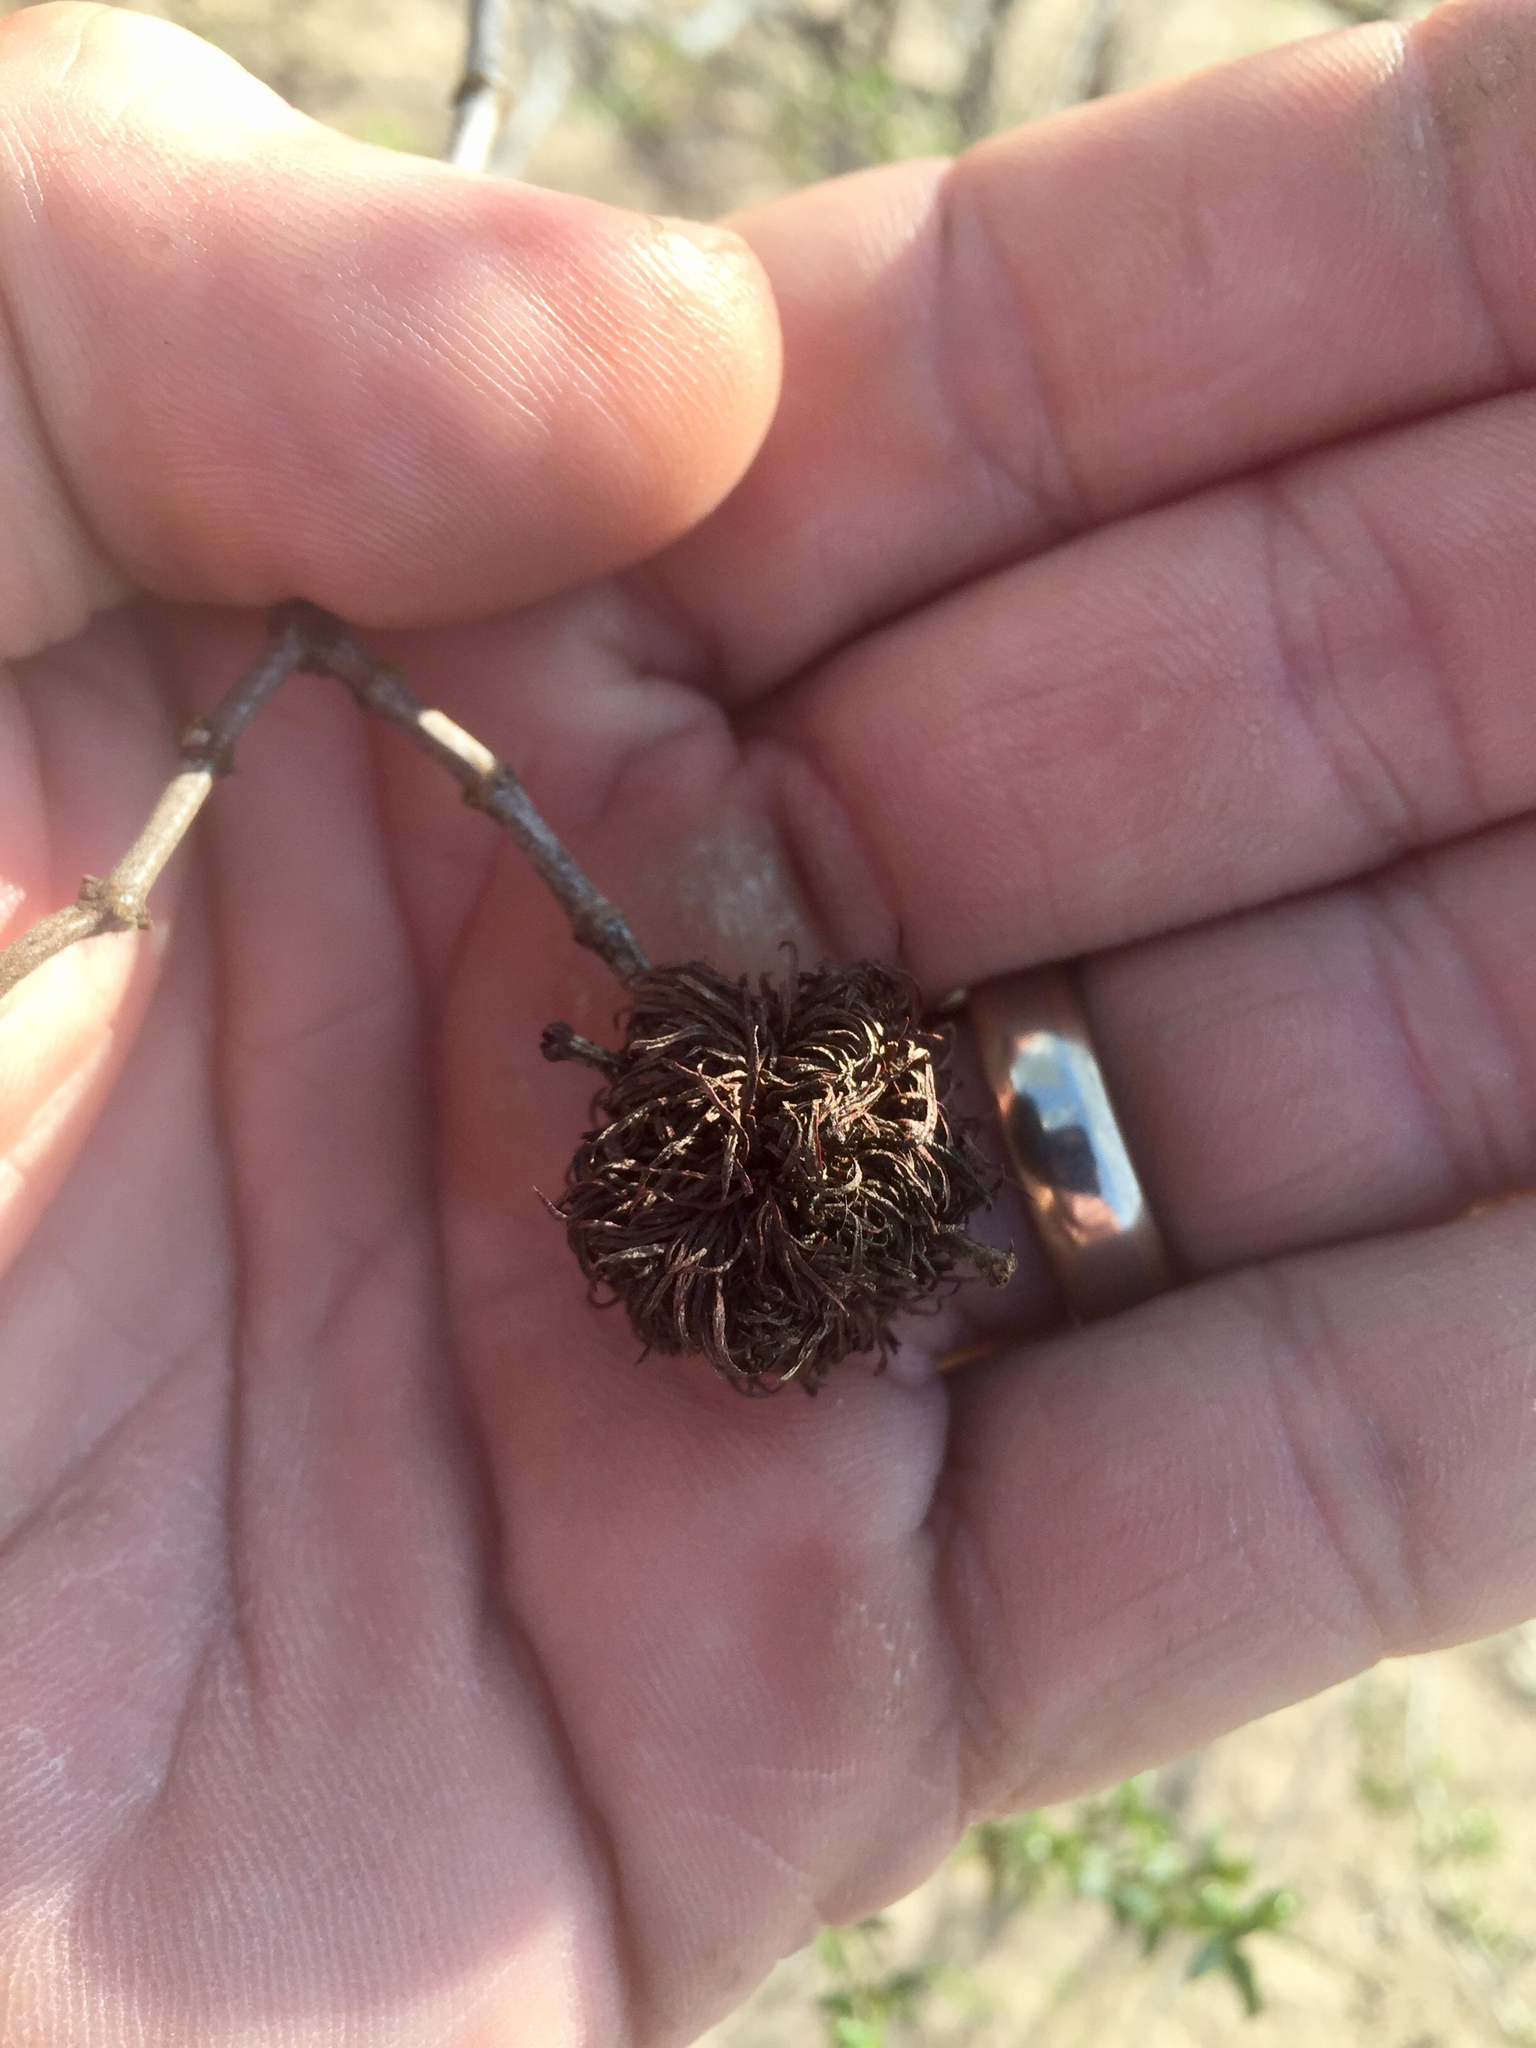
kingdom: Animalia
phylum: Arthropoda
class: Insecta
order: Diptera
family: Cecidomyiidae
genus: Asphondylia
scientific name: Asphondylia auripila
